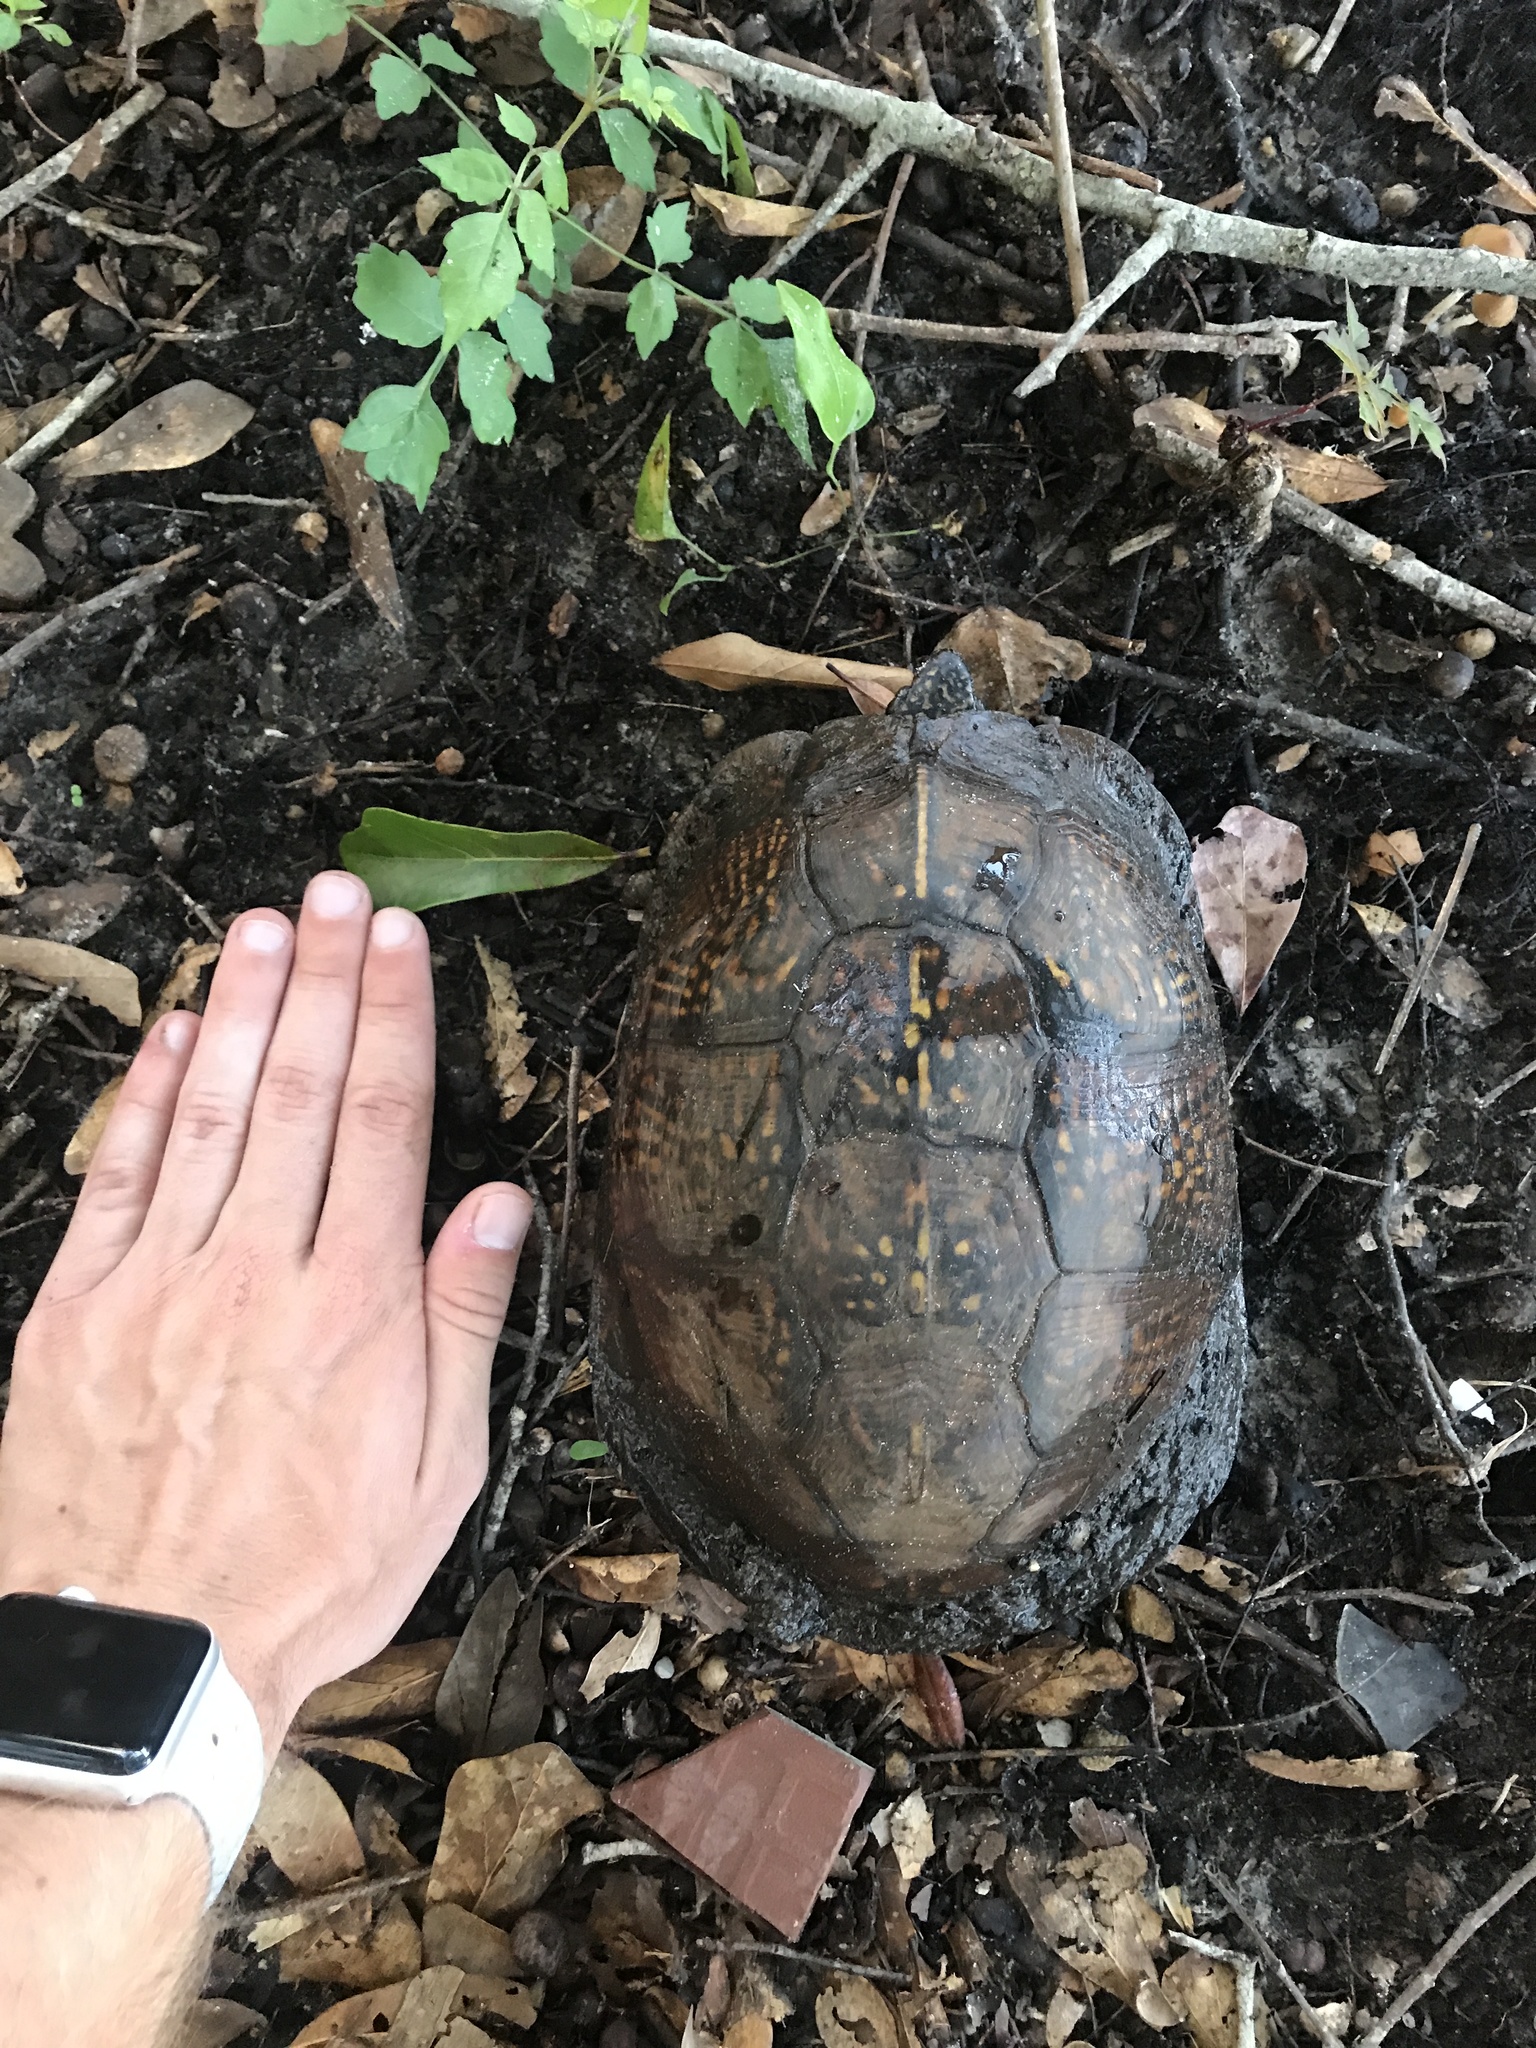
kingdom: Animalia
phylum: Chordata
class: Testudines
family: Emydidae
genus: Terrapene
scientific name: Terrapene carolina
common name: Common box turtle
